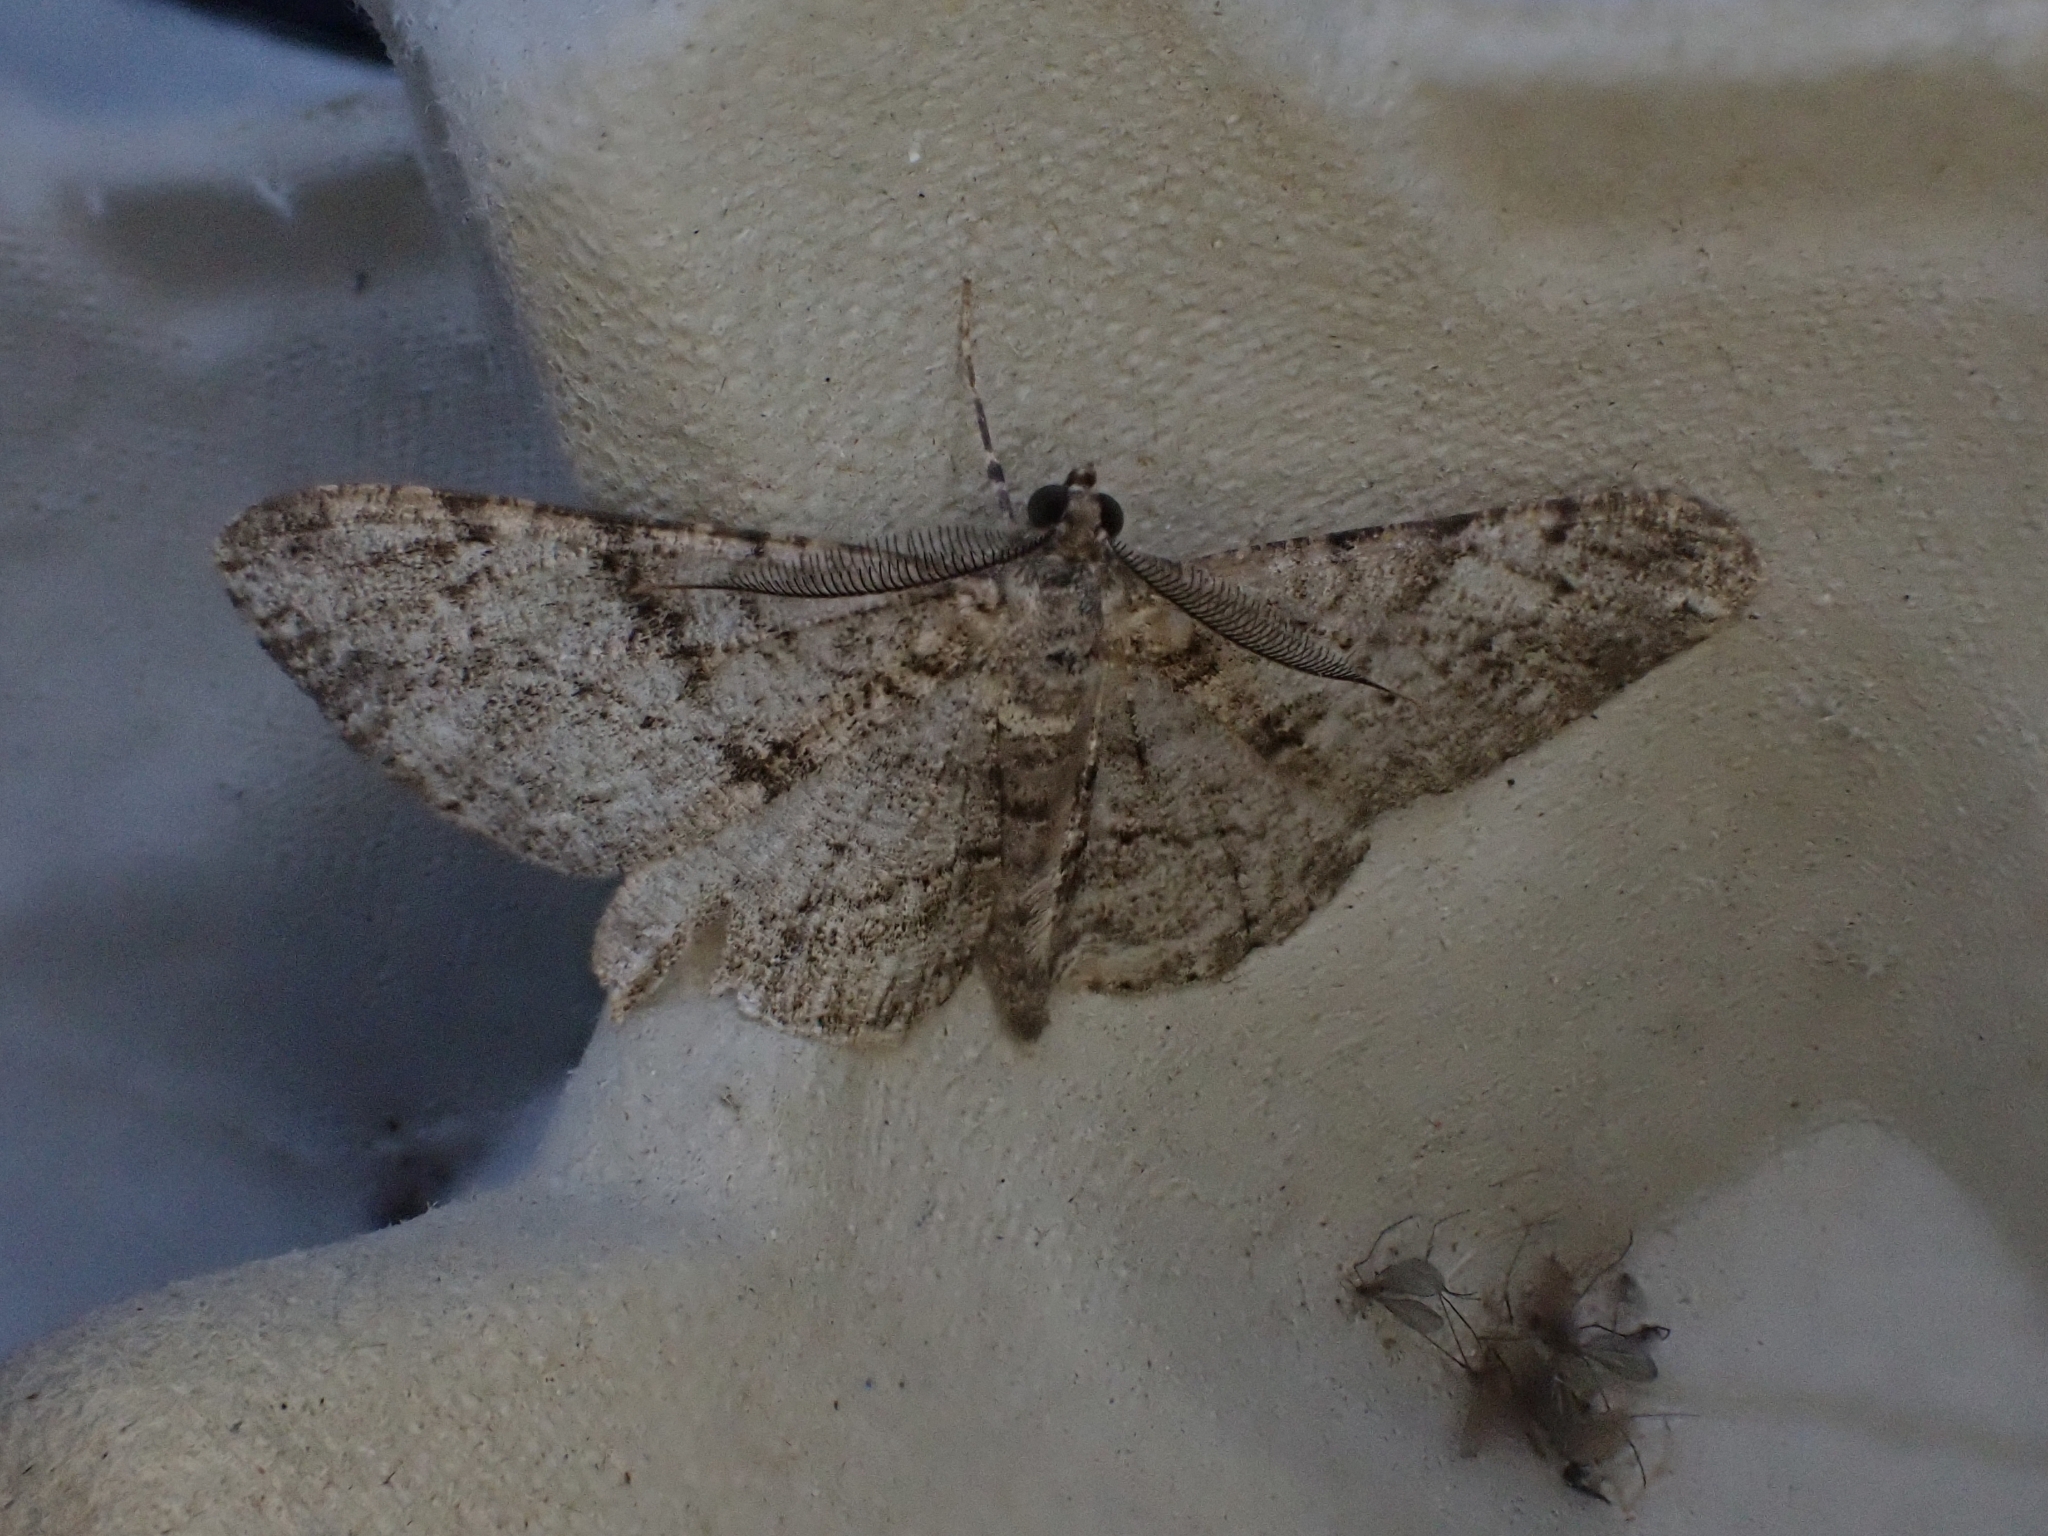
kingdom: Animalia
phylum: Arthropoda
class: Insecta
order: Lepidoptera
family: Geometridae
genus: Peribatodes
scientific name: Peribatodes rhomboidaria
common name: Willow beauty
